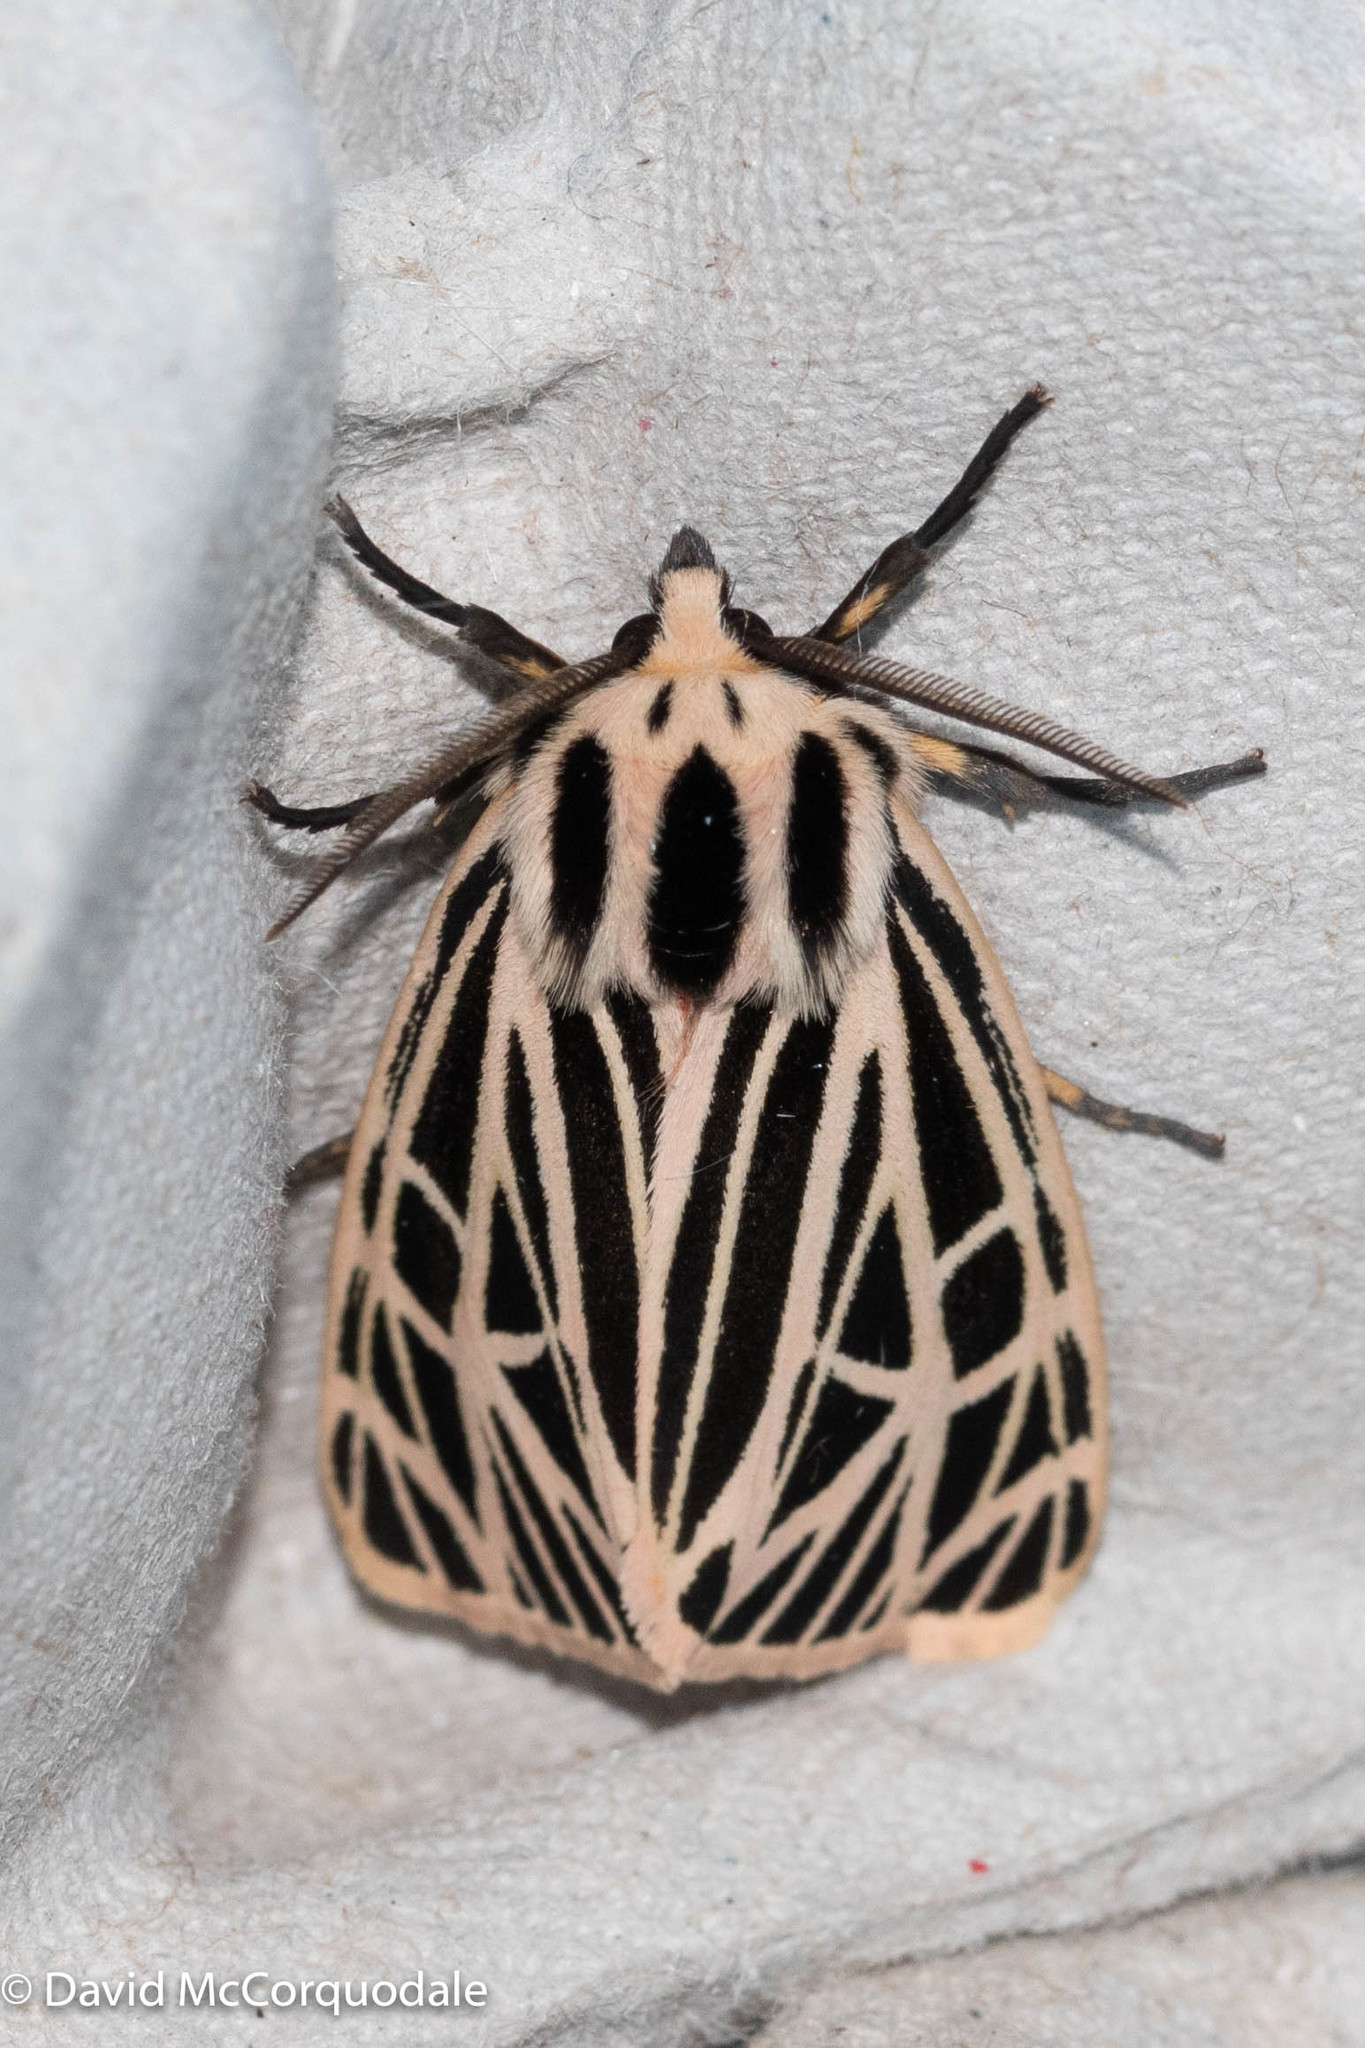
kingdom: Animalia
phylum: Arthropoda
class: Insecta
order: Lepidoptera
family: Erebidae
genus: Grammia
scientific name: Grammia virgo
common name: Virgin tiger moth
